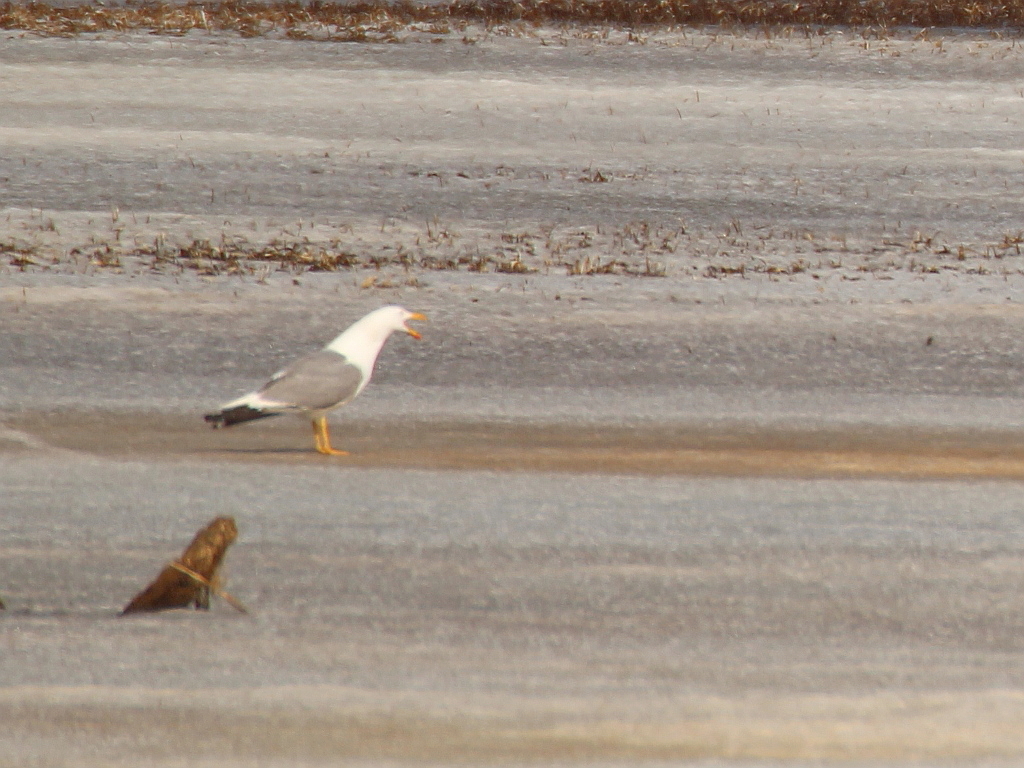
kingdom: Animalia
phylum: Chordata
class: Aves
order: Charadriiformes
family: Laridae
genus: Larus
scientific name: Larus fuscus
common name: Lesser black-backed gull
